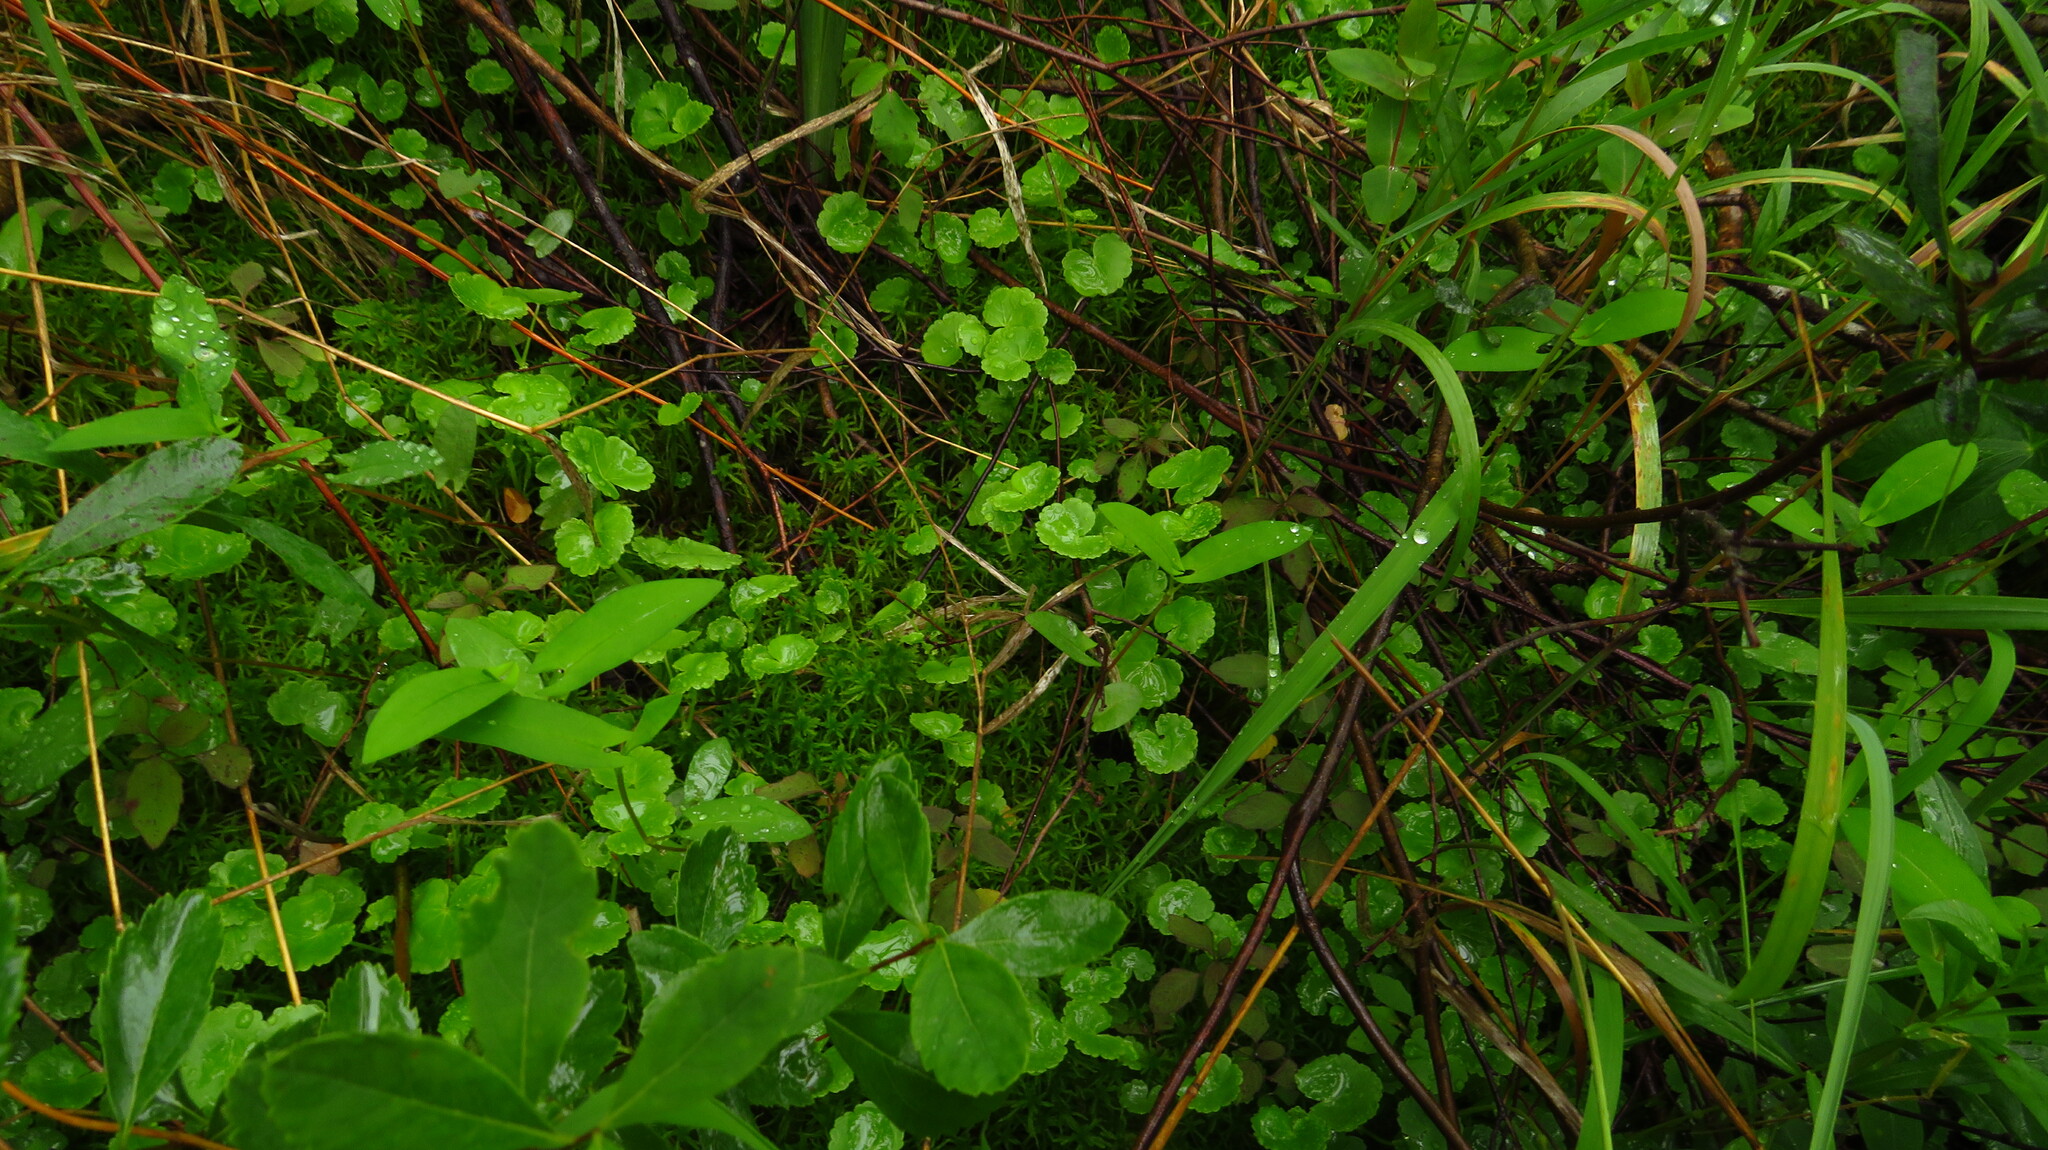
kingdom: Plantae
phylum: Tracheophyta
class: Magnoliopsida
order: Apiales
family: Araliaceae
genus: Hydrocotyle
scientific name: Hydrocotyle americana
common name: American water-pennywort
